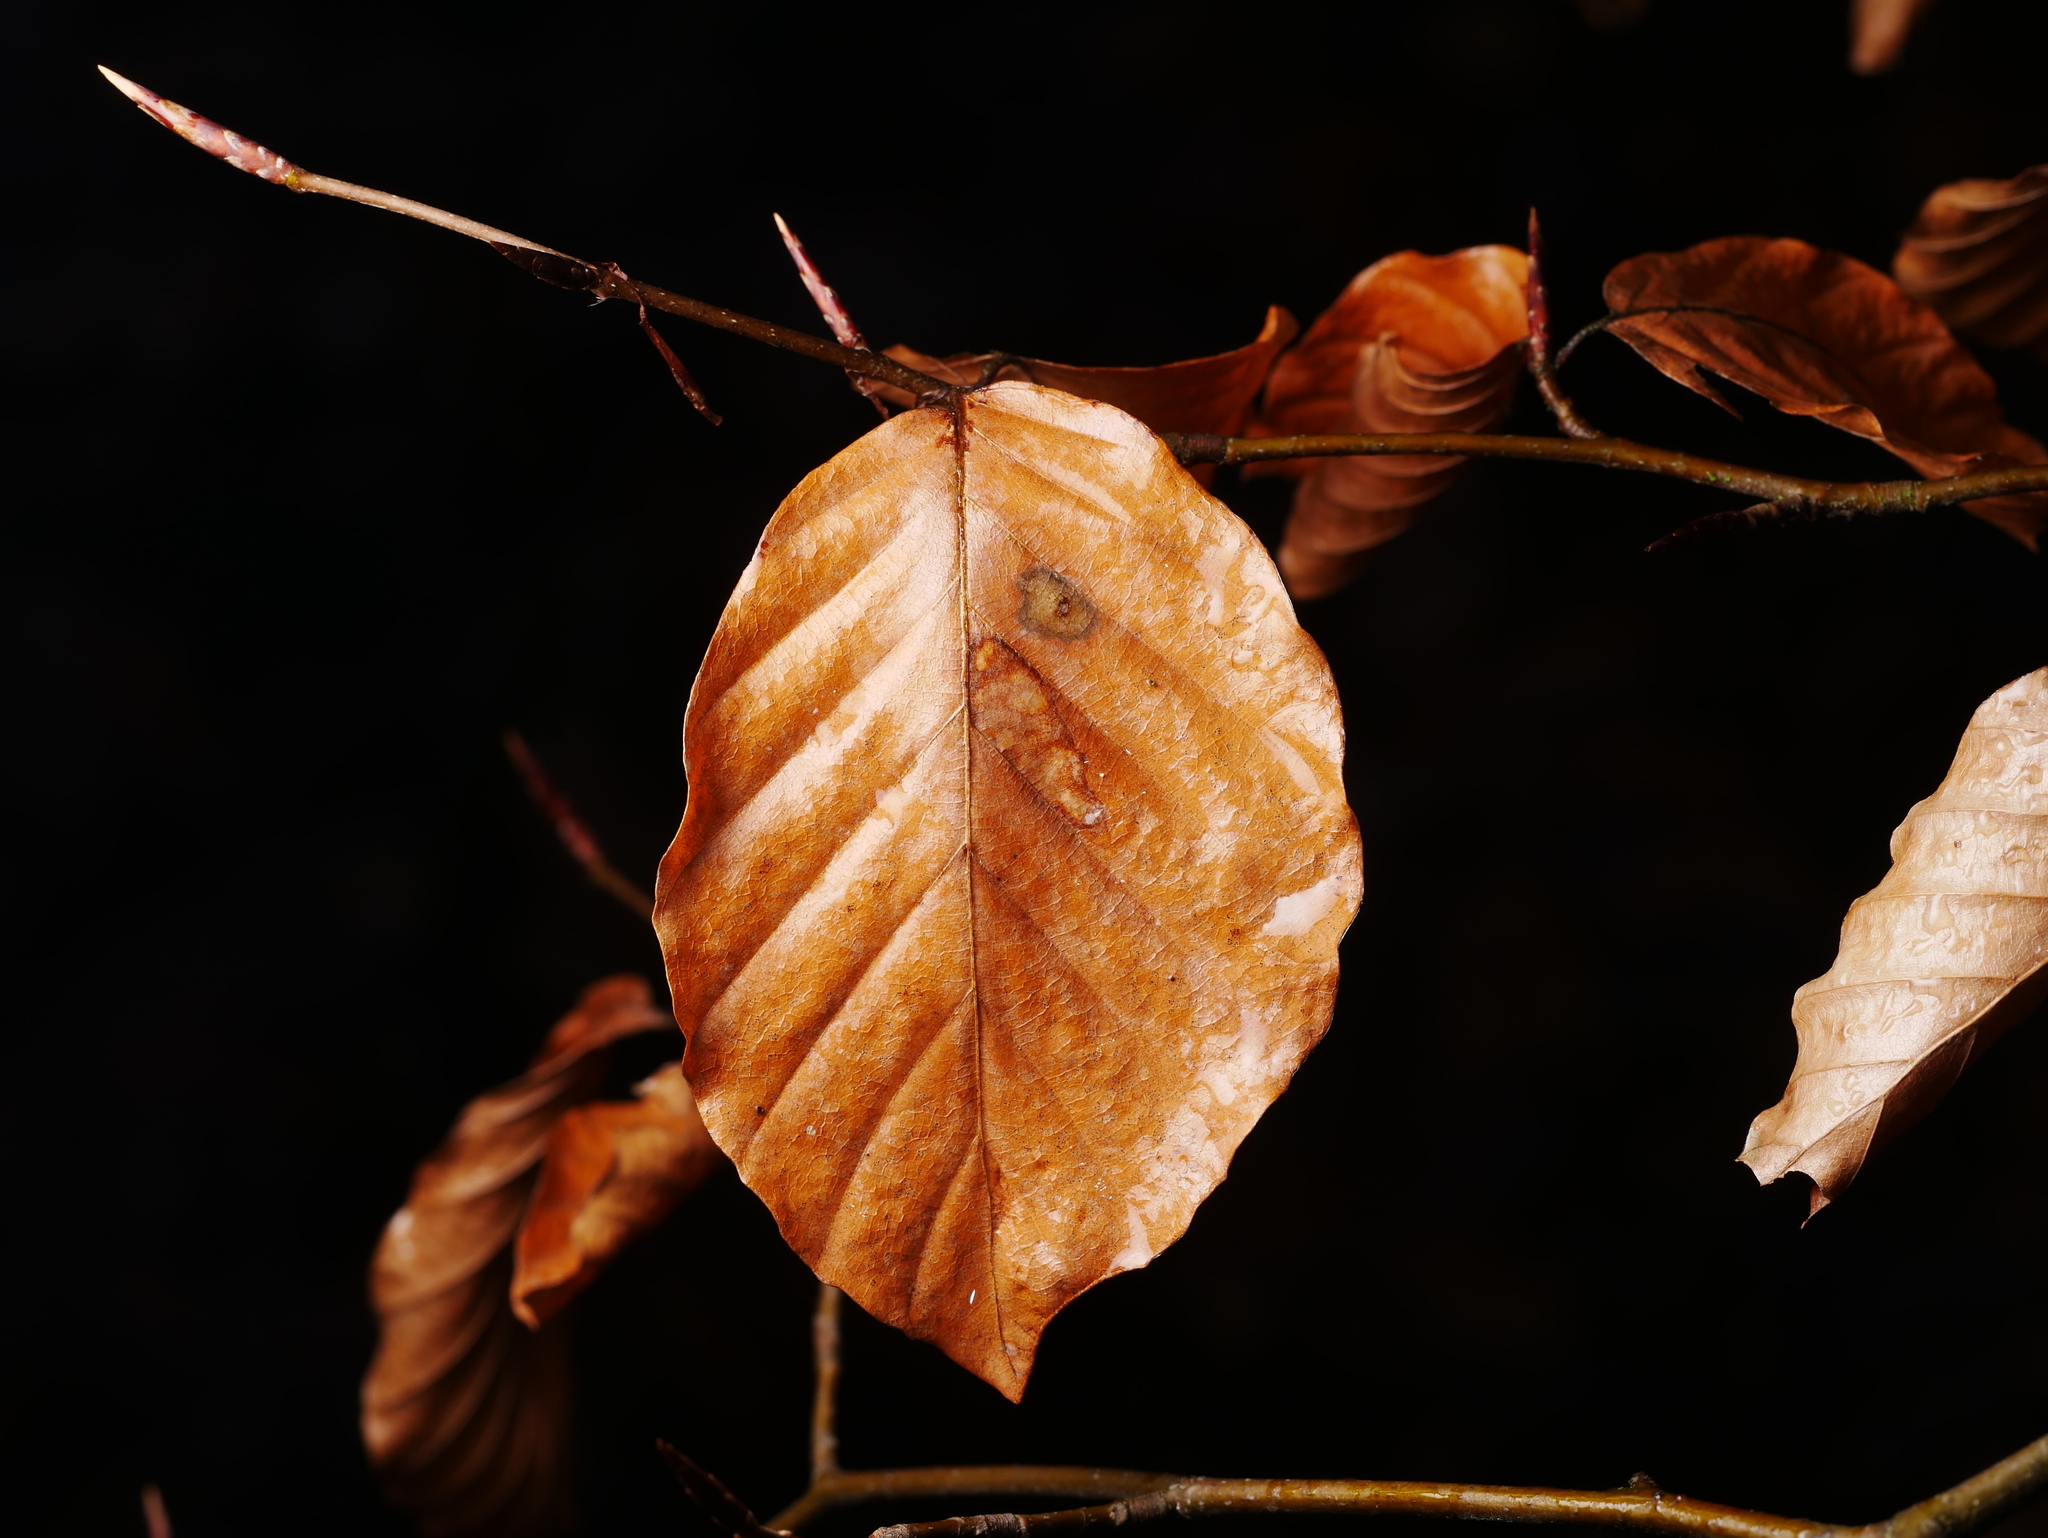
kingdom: Plantae
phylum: Tracheophyta
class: Magnoliopsida
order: Fagales
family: Fagaceae
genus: Fagus
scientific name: Fagus sylvatica
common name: Beech
